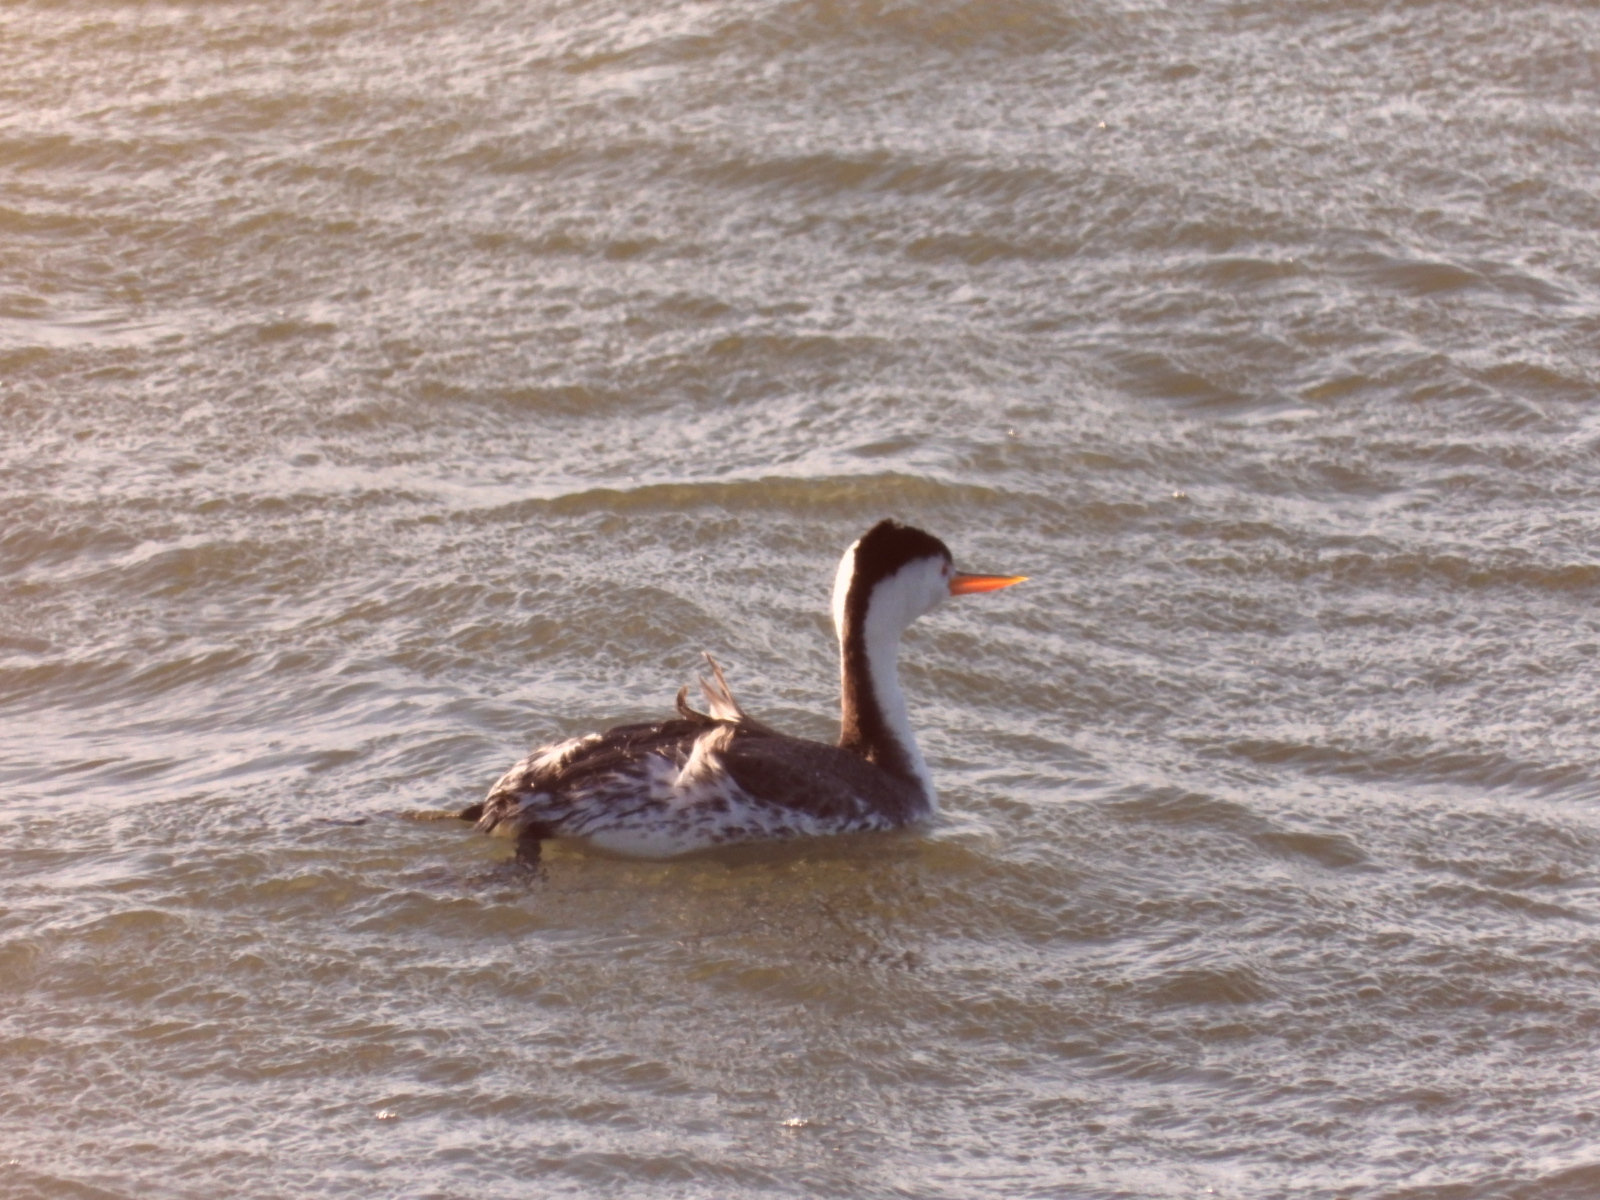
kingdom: Animalia
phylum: Chordata
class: Aves
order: Podicipediformes
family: Podicipedidae
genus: Aechmophorus
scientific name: Aechmophorus clarkii
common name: Clark's grebe
